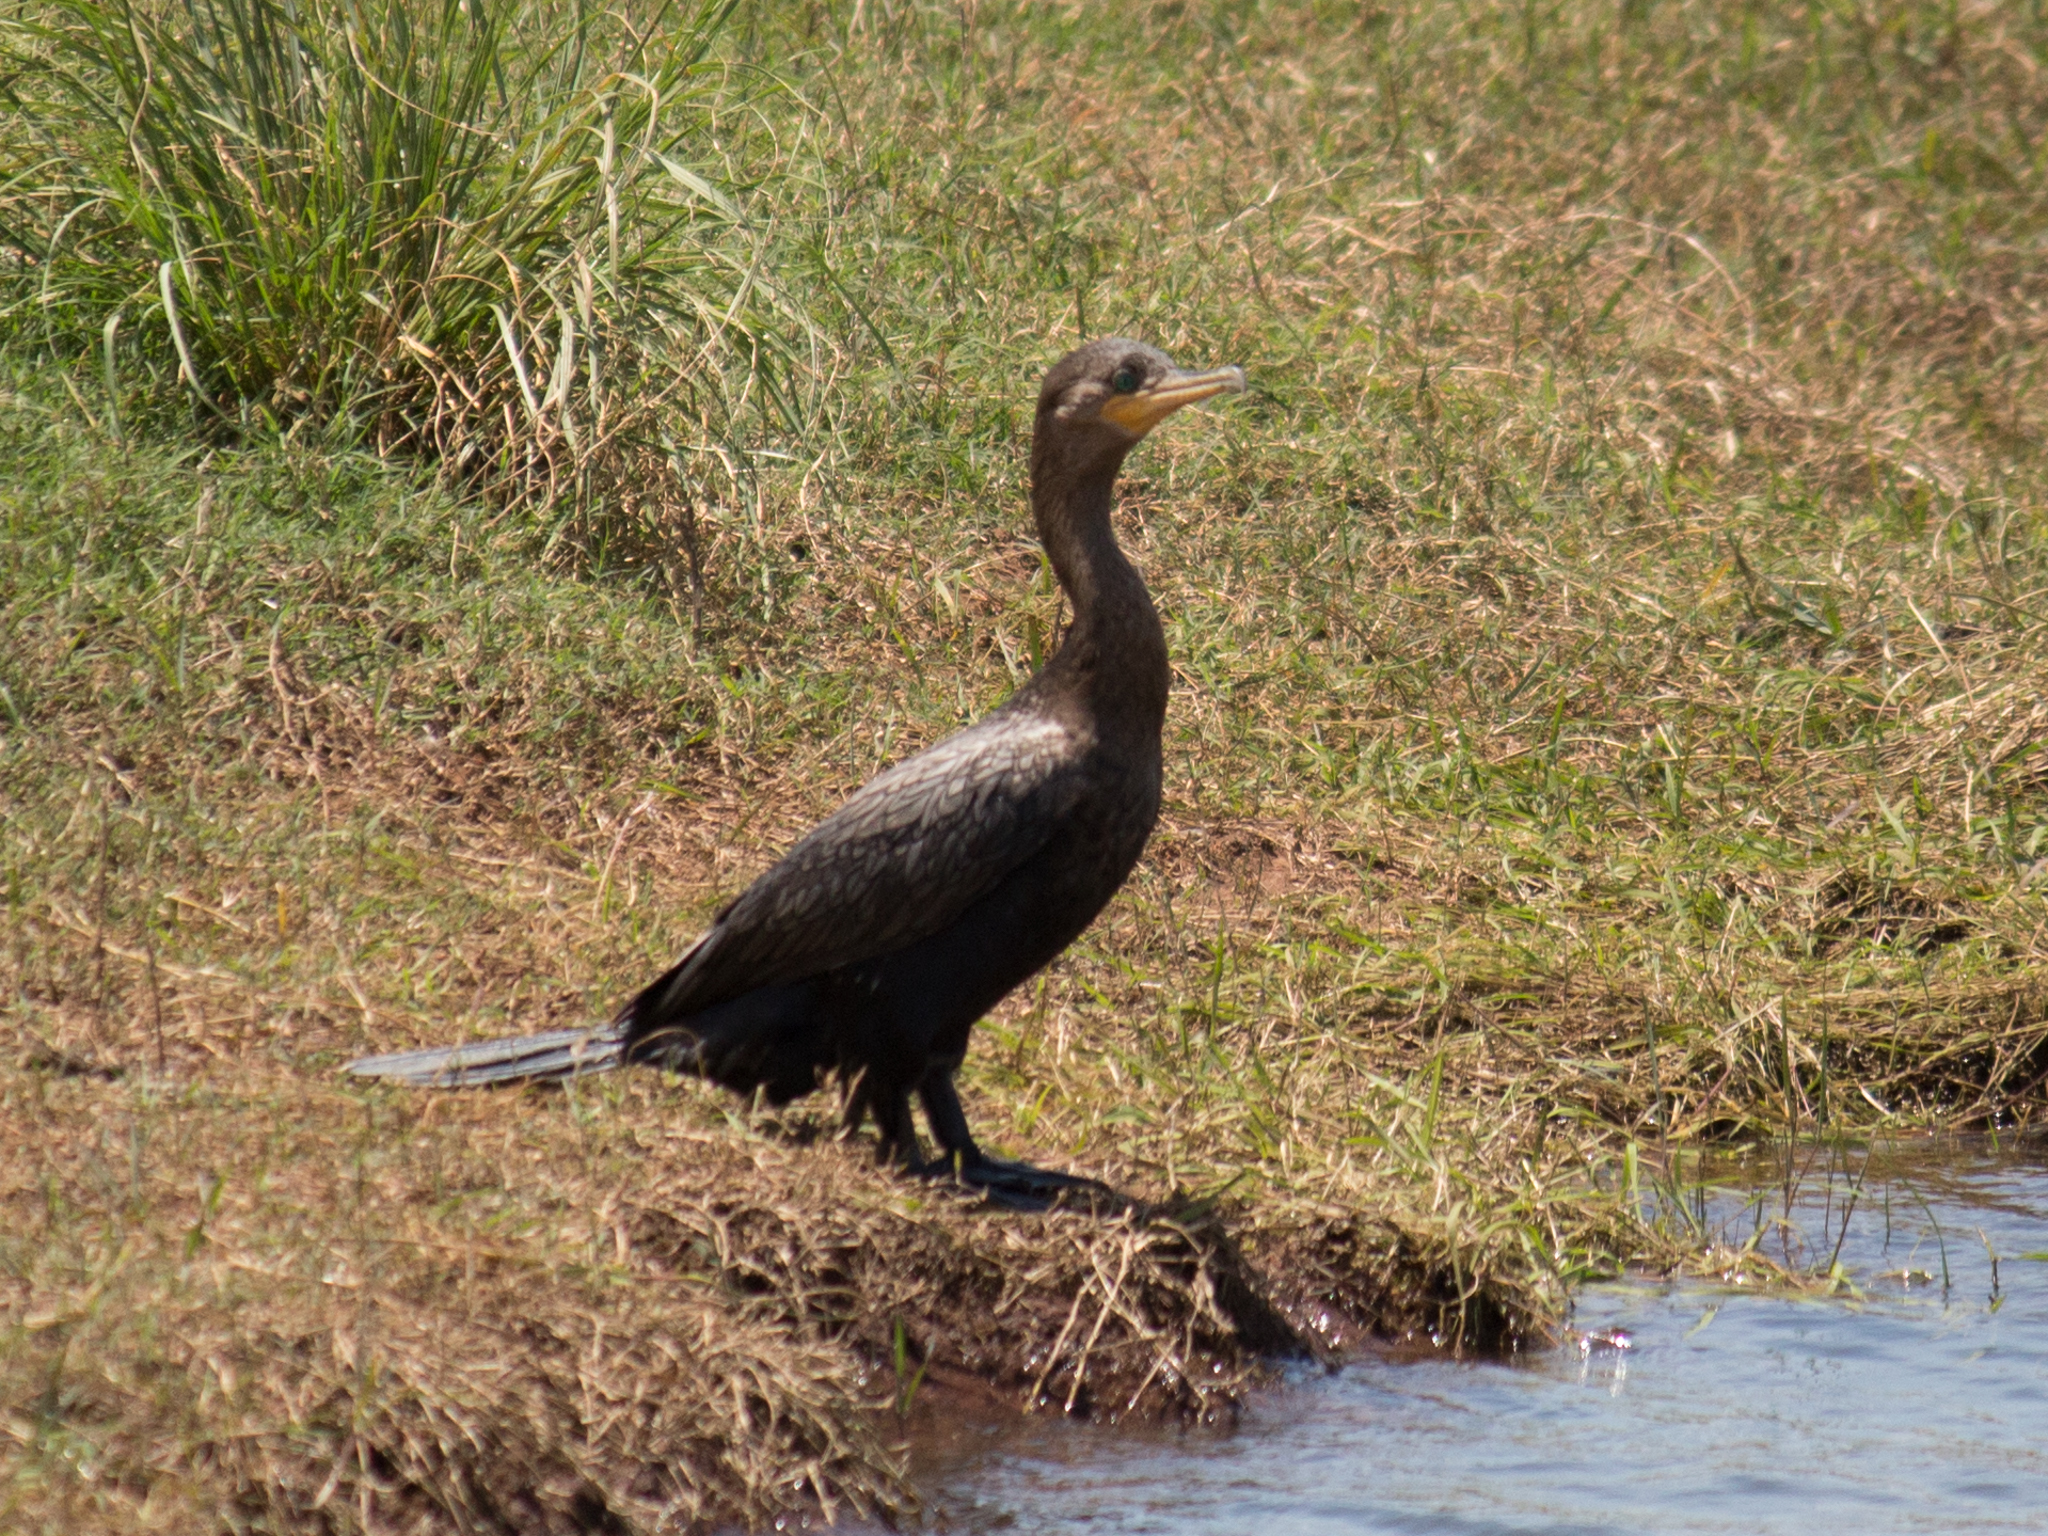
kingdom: Animalia
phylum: Chordata
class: Aves
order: Suliformes
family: Phalacrocoracidae
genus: Phalacrocorax
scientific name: Phalacrocorax brasilianus
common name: Neotropic cormorant
